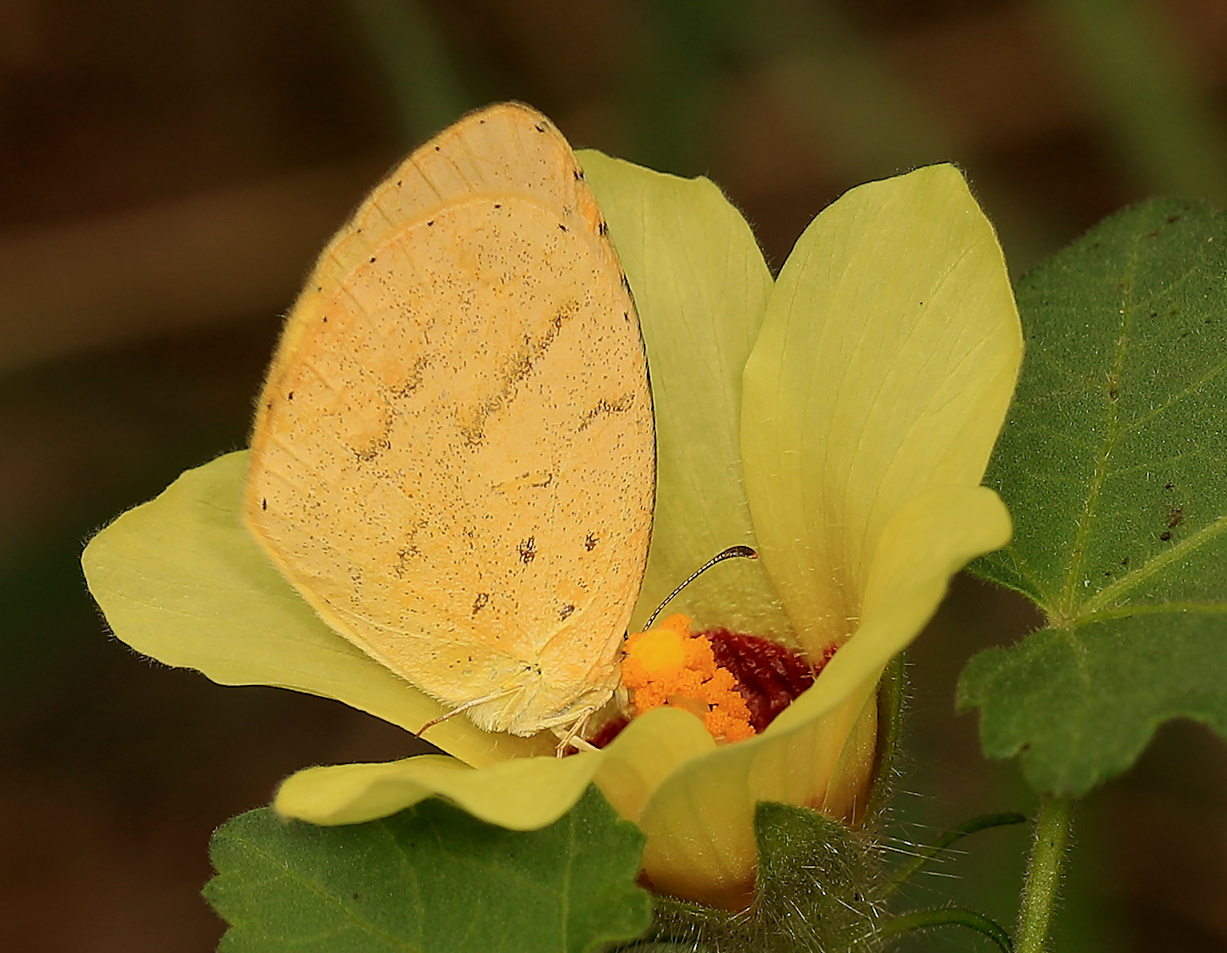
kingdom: Animalia
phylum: Arthropoda
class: Insecta
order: Lepidoptera
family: Pieridae
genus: Eurema
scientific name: Eurema brigitta
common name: Small grass yellow
